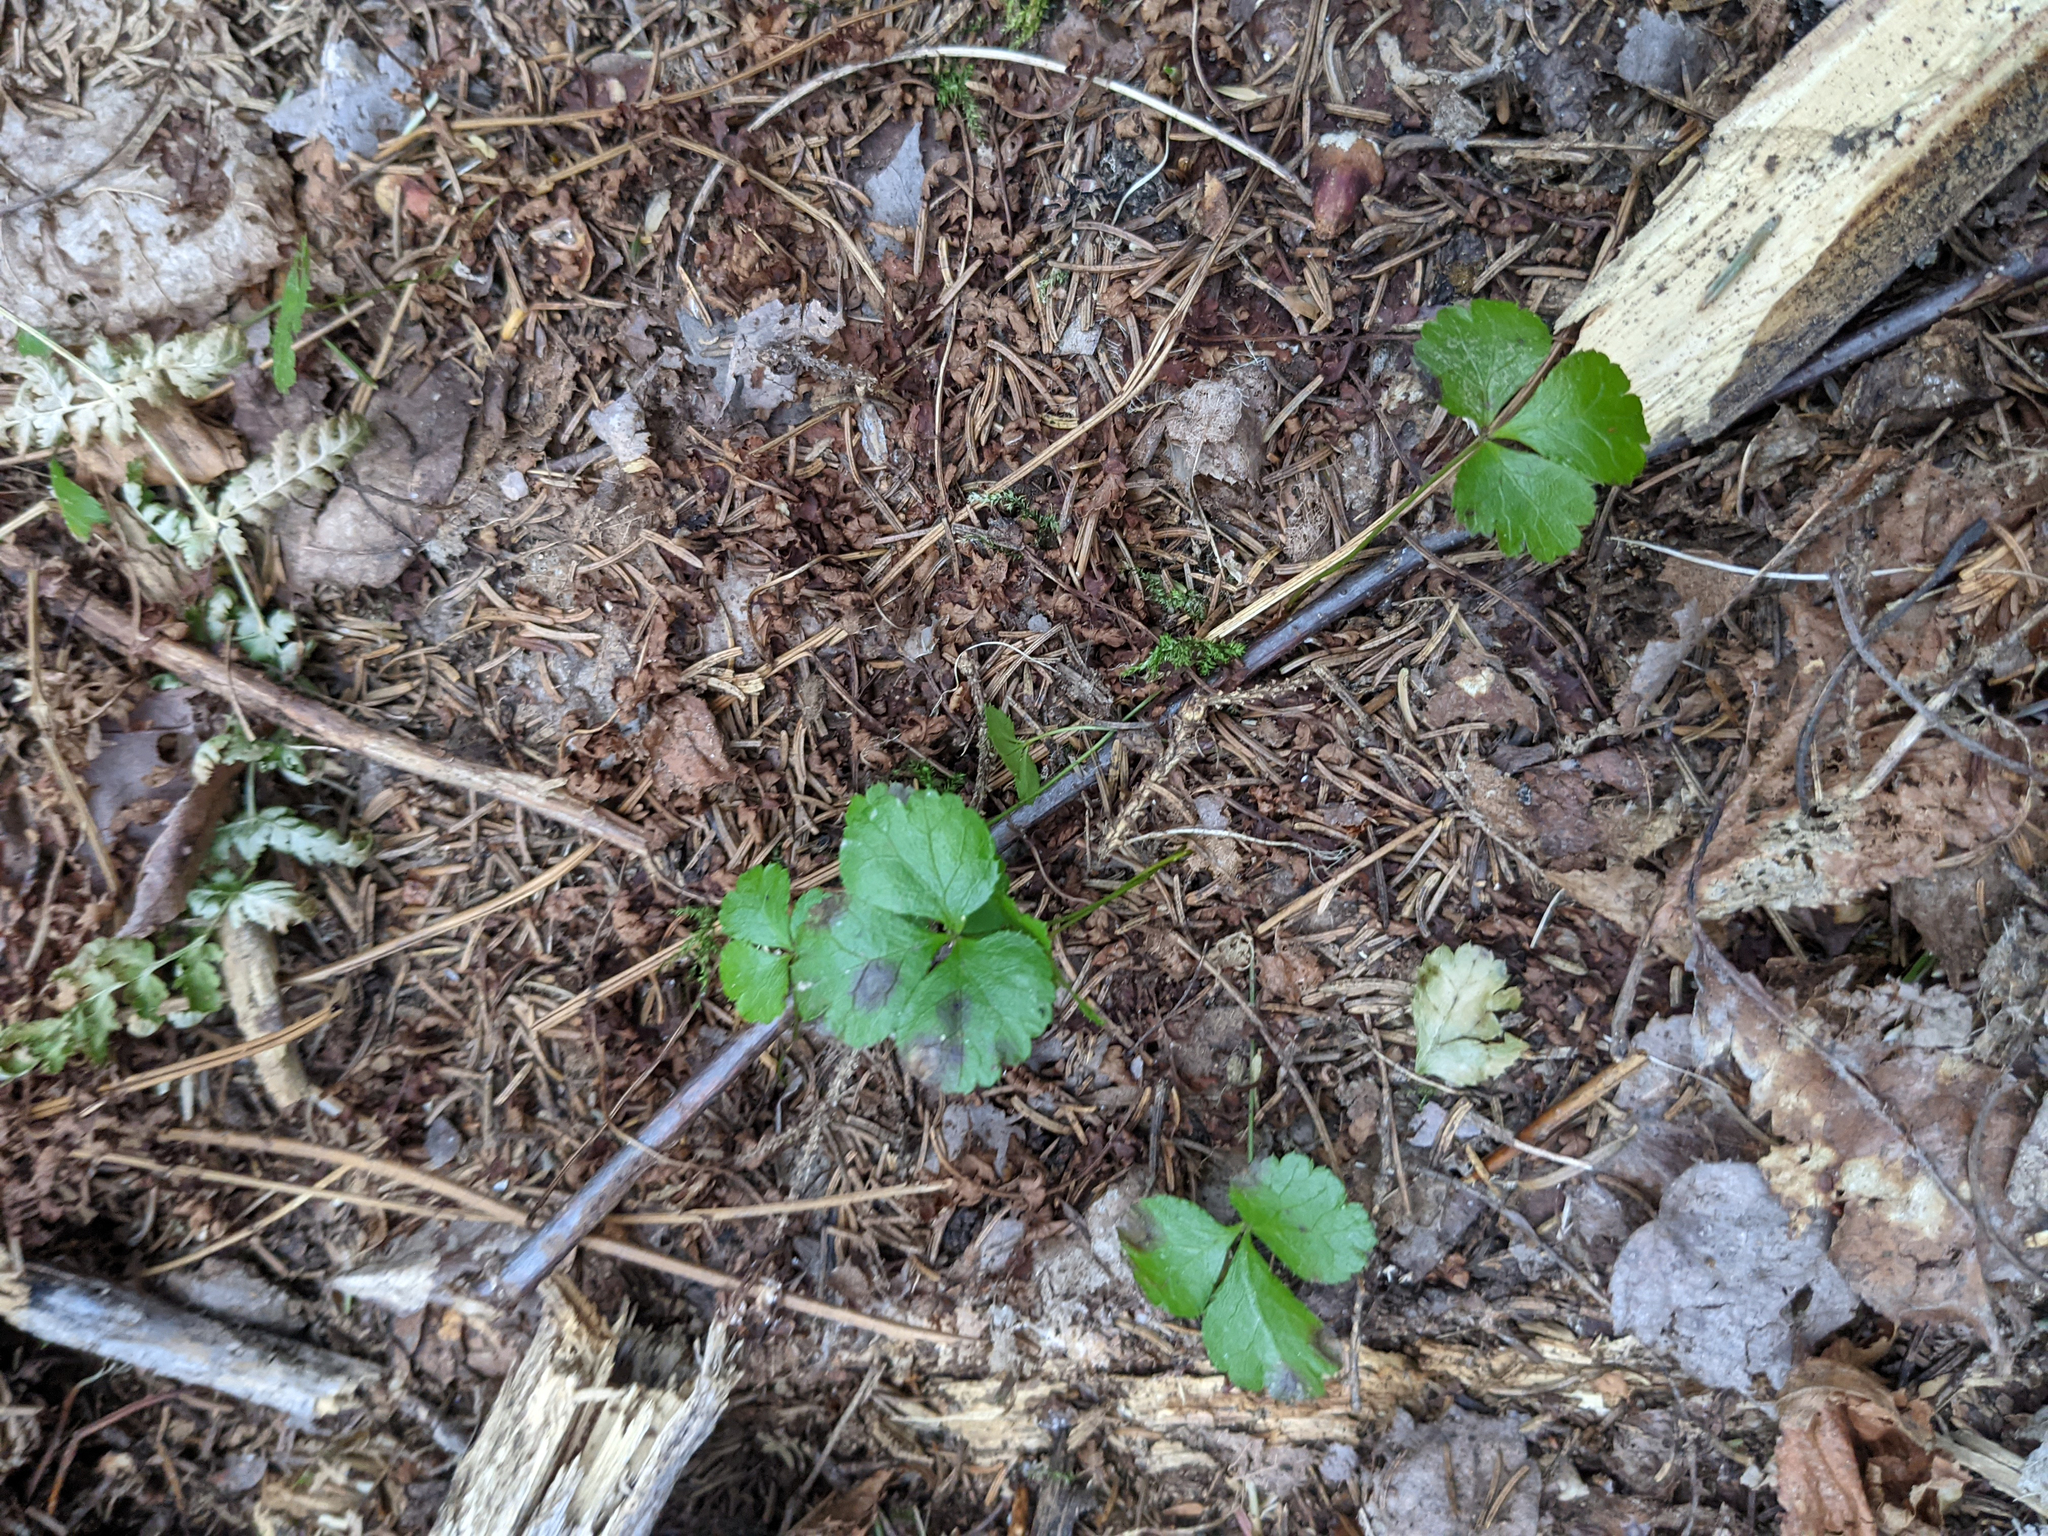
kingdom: Plantae
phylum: Tracheophyta
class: Magnoliopsida
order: Ranunculales
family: Ranunculaceae
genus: Coptis
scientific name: Coptis trifolia
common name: Canker-root
